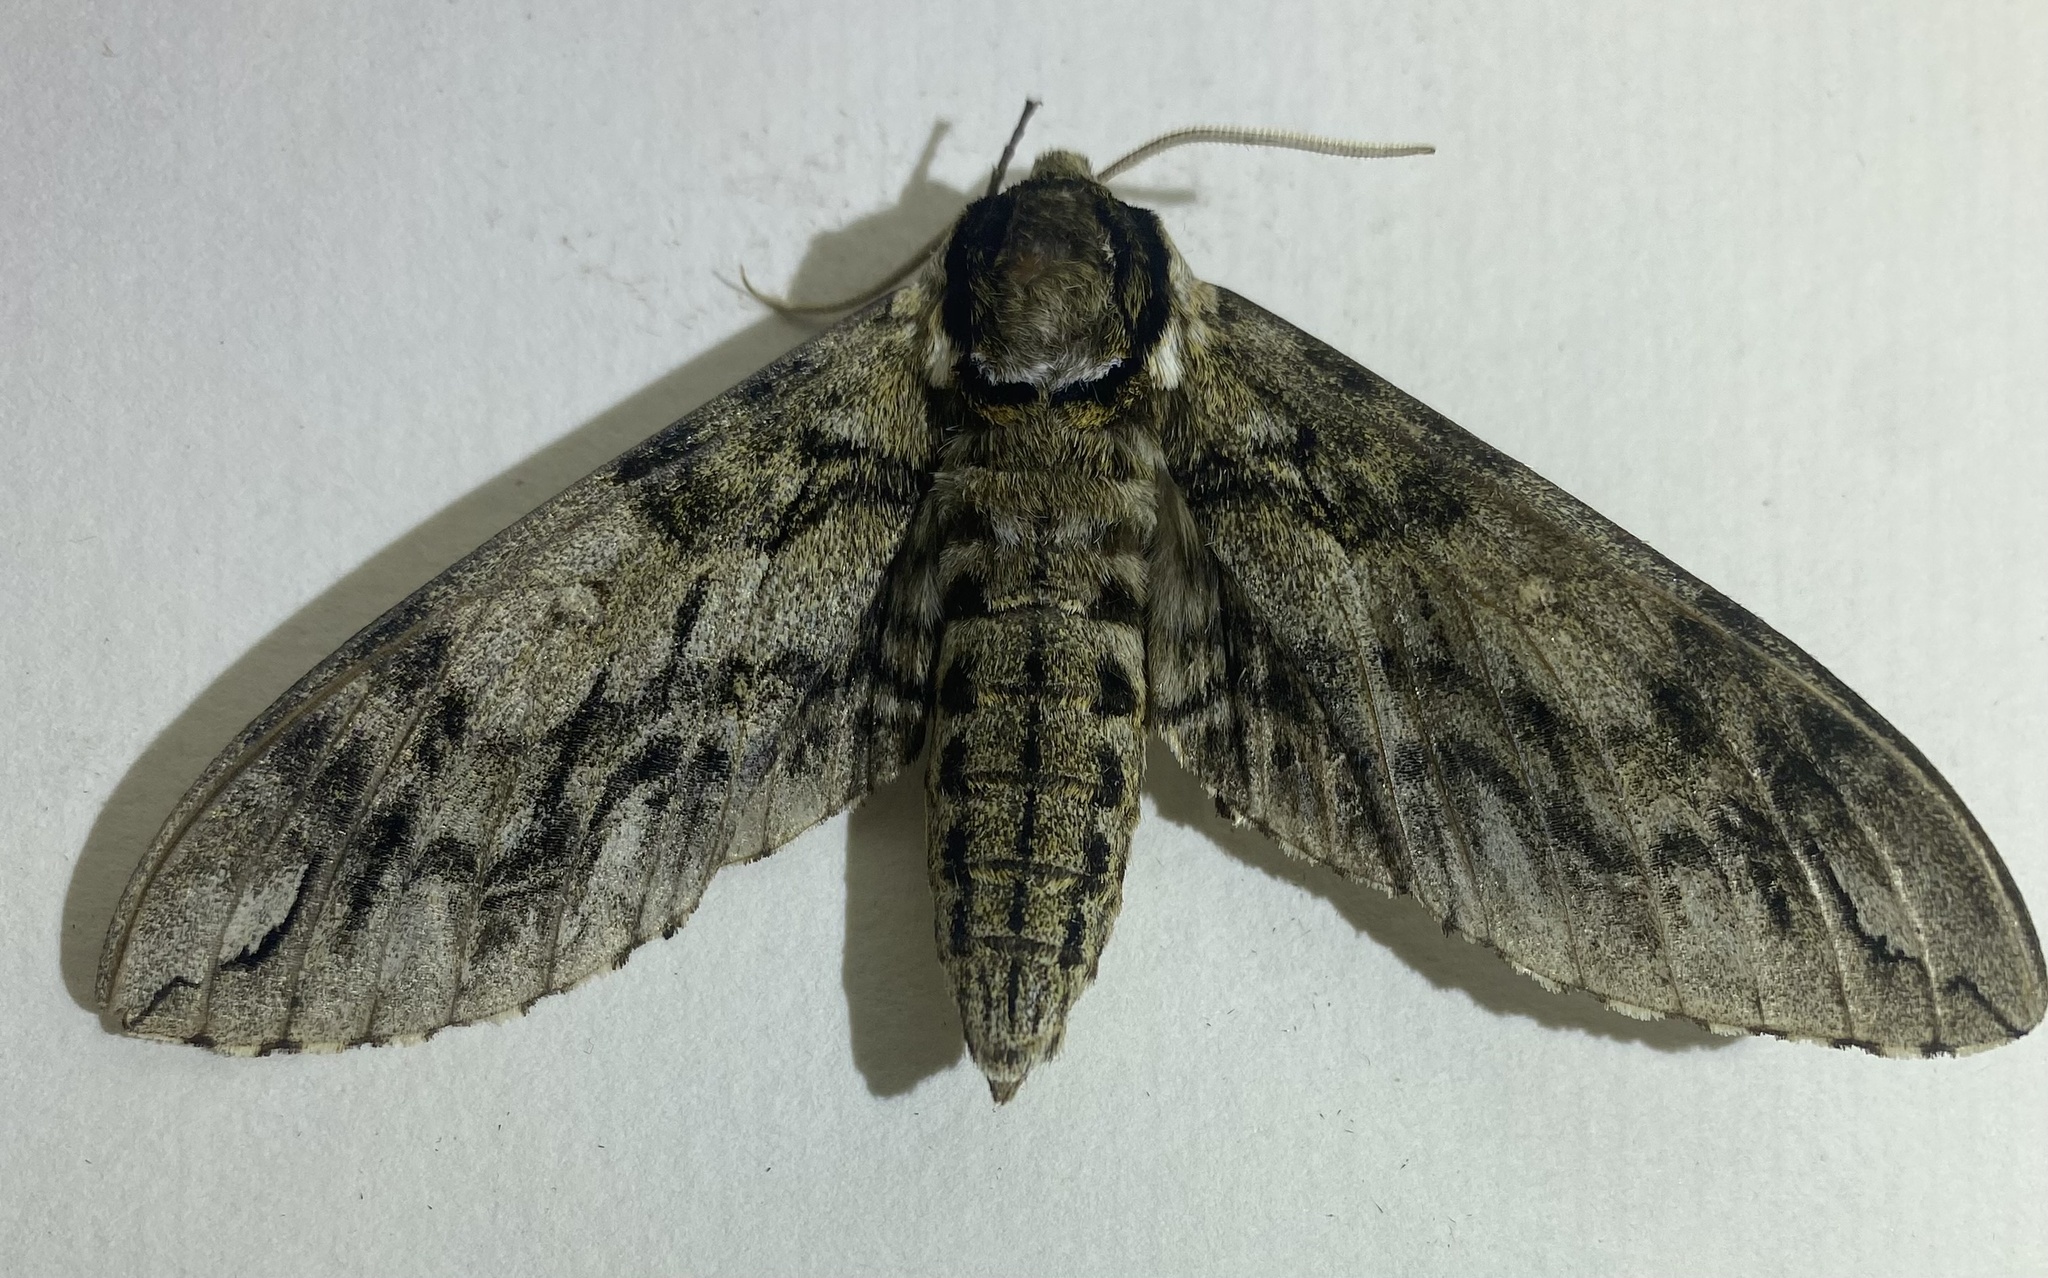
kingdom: Animalia
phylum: Arthropoda
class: Insecta
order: Lepidoptera
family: Sphingidae
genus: Ceratomia
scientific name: Ceratomia undulosa
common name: Waved sphinx
